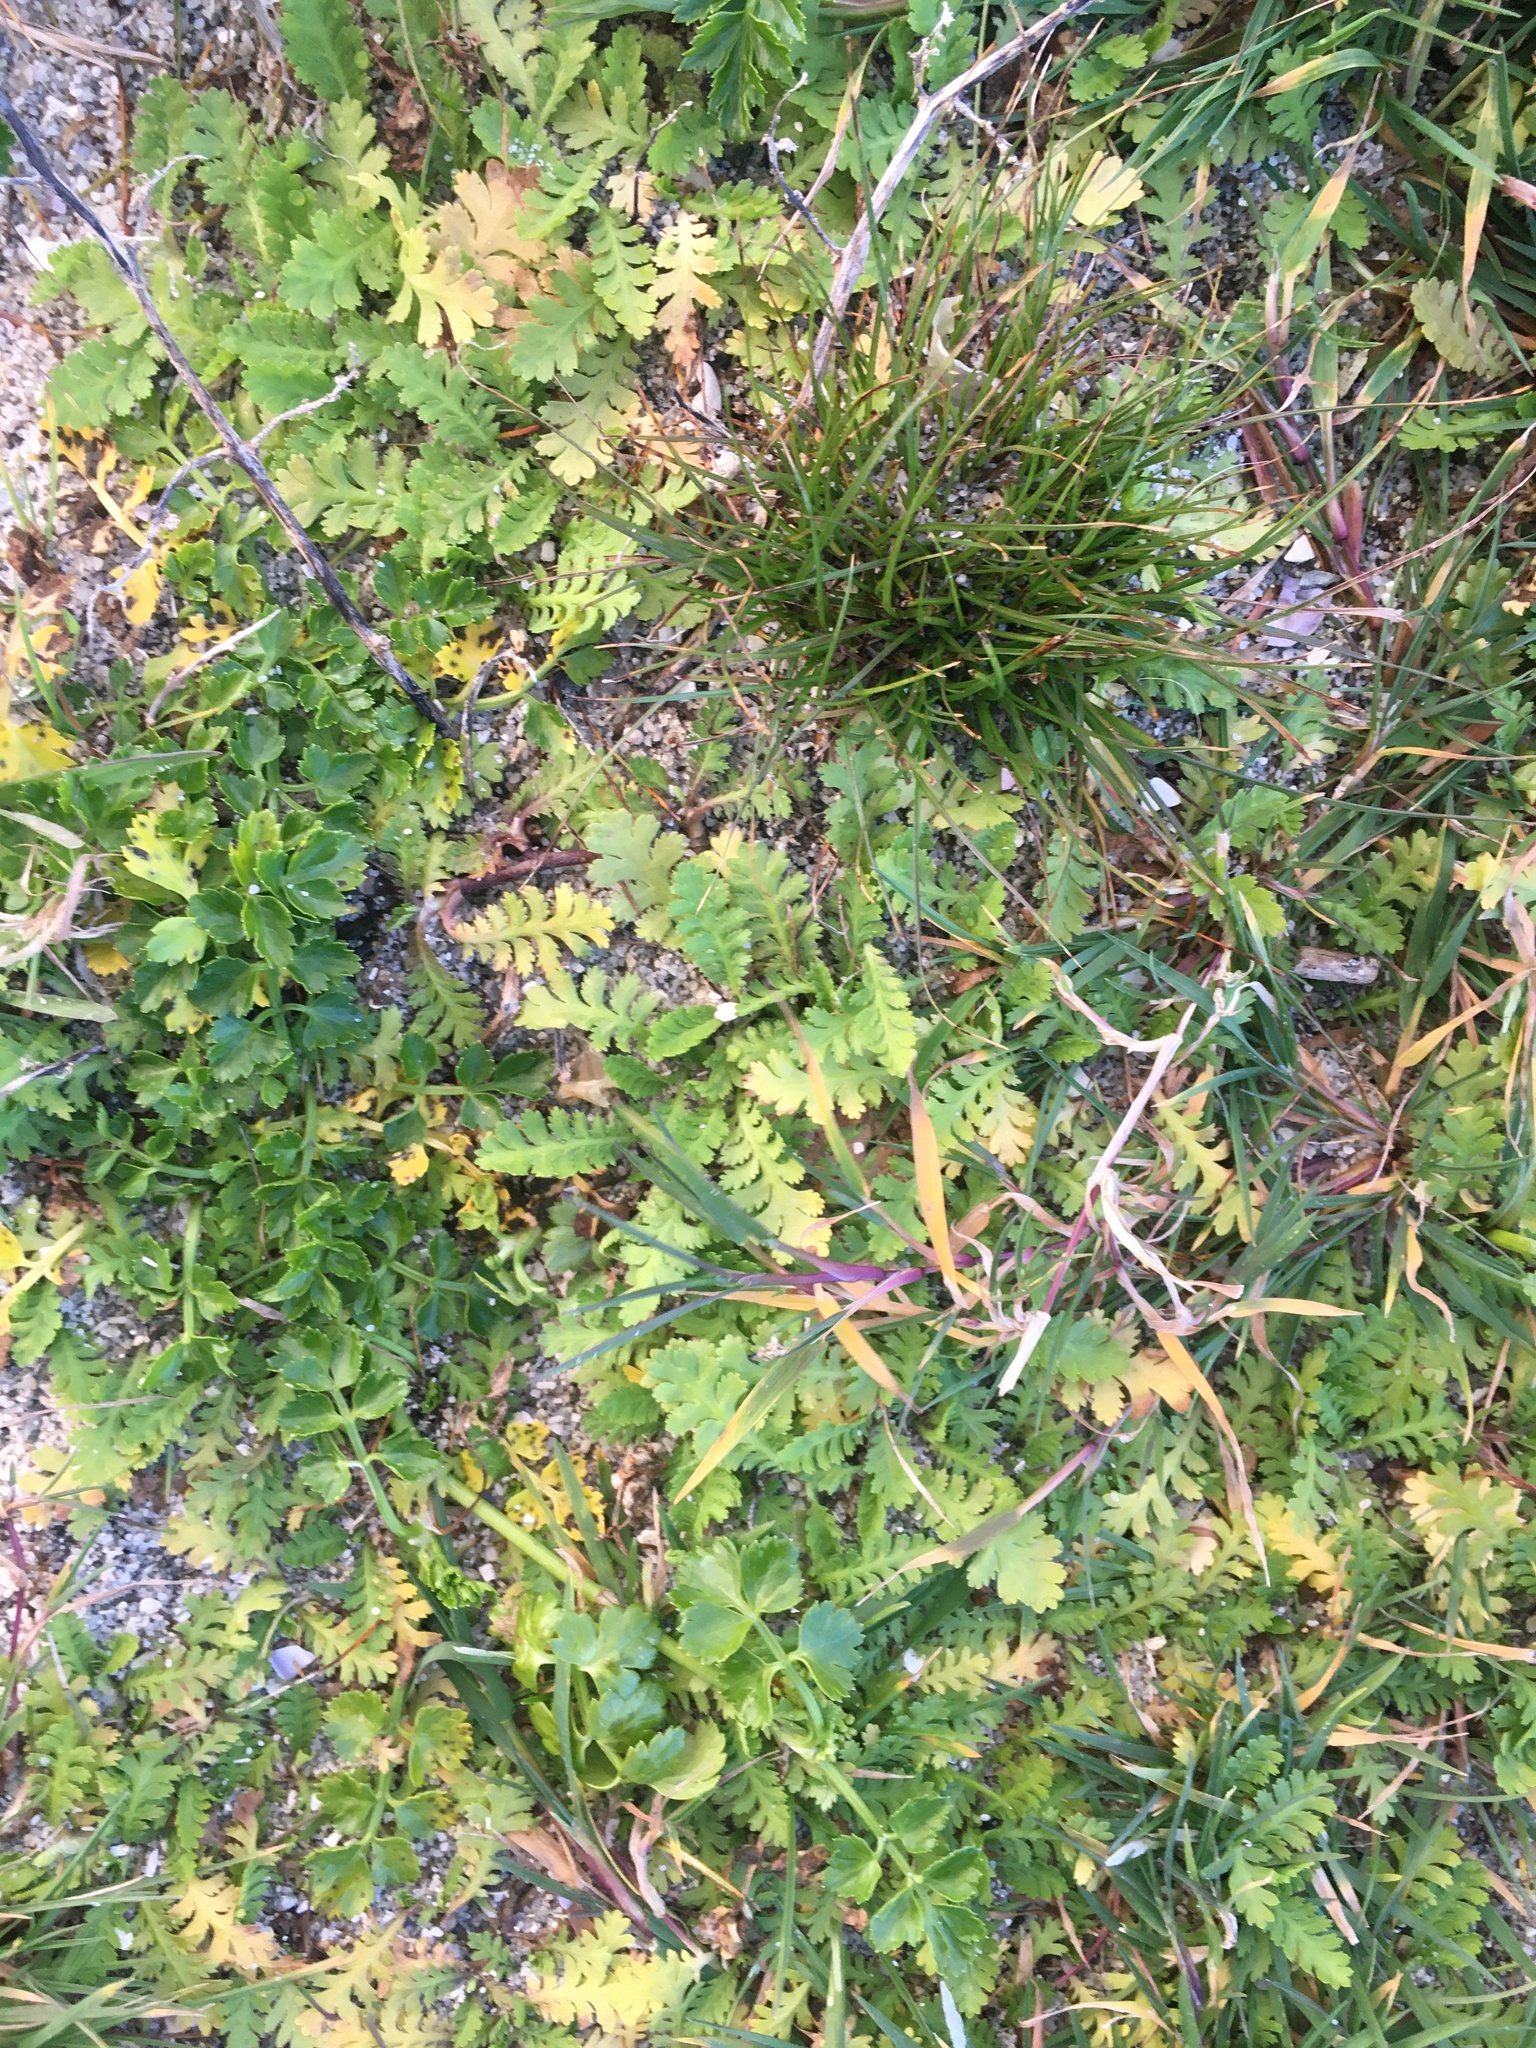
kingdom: Plantae
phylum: Tracheophyta
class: Magnoliopsida
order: Asterales
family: Asteraceae
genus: Leptinella
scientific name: Leptinella potentillina
